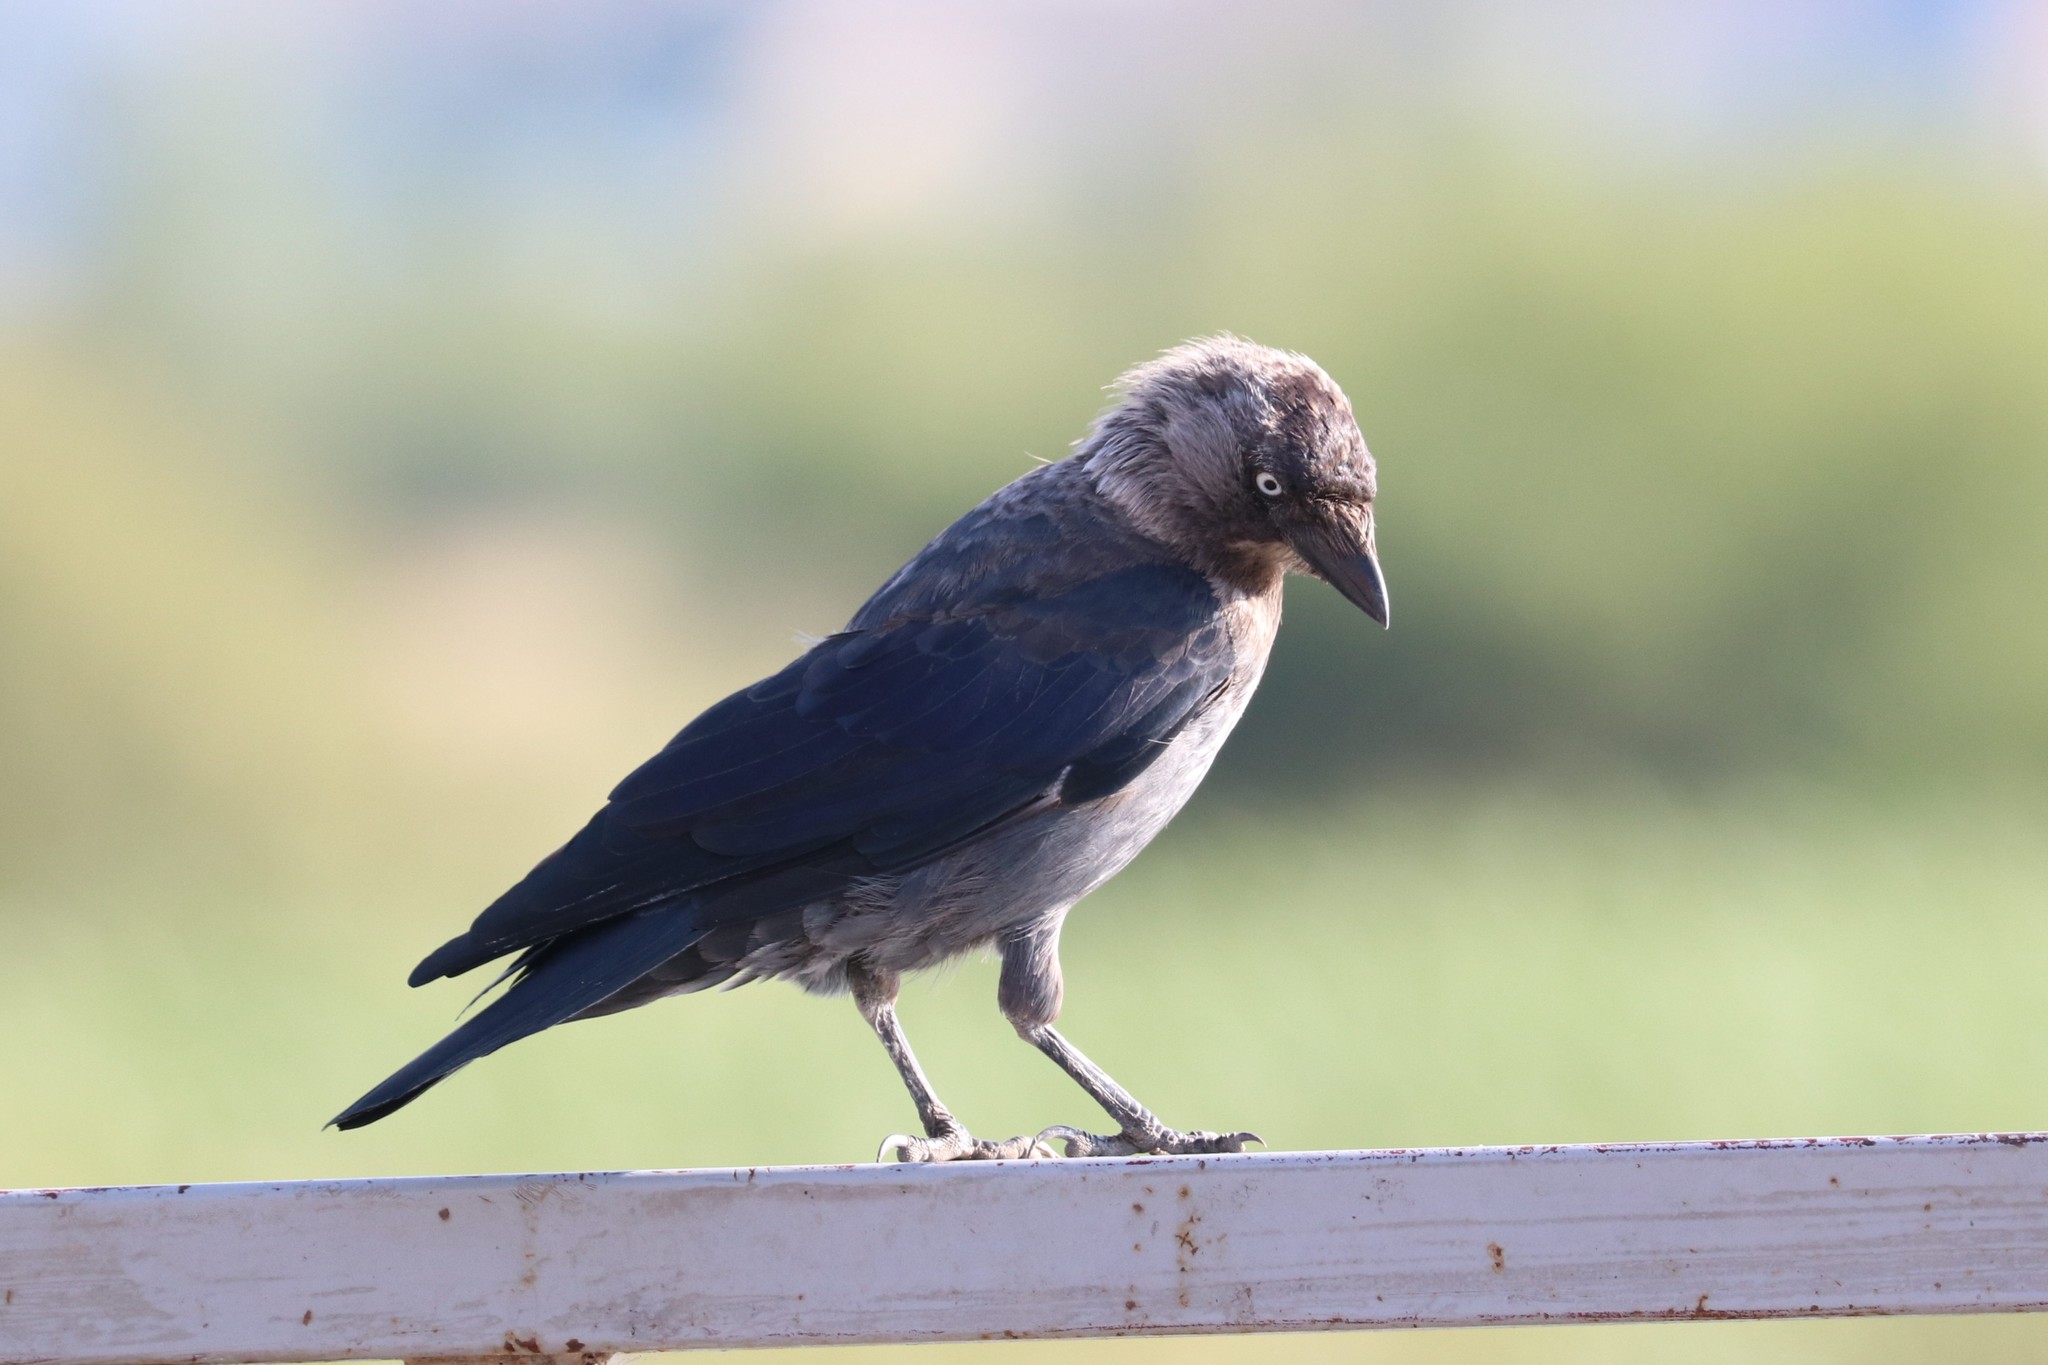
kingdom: Animalia
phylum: Chordata
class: Aves
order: Passeriformes
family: Corvidae
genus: Coloeus
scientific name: Coloeus monedula
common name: Western jackdaw
